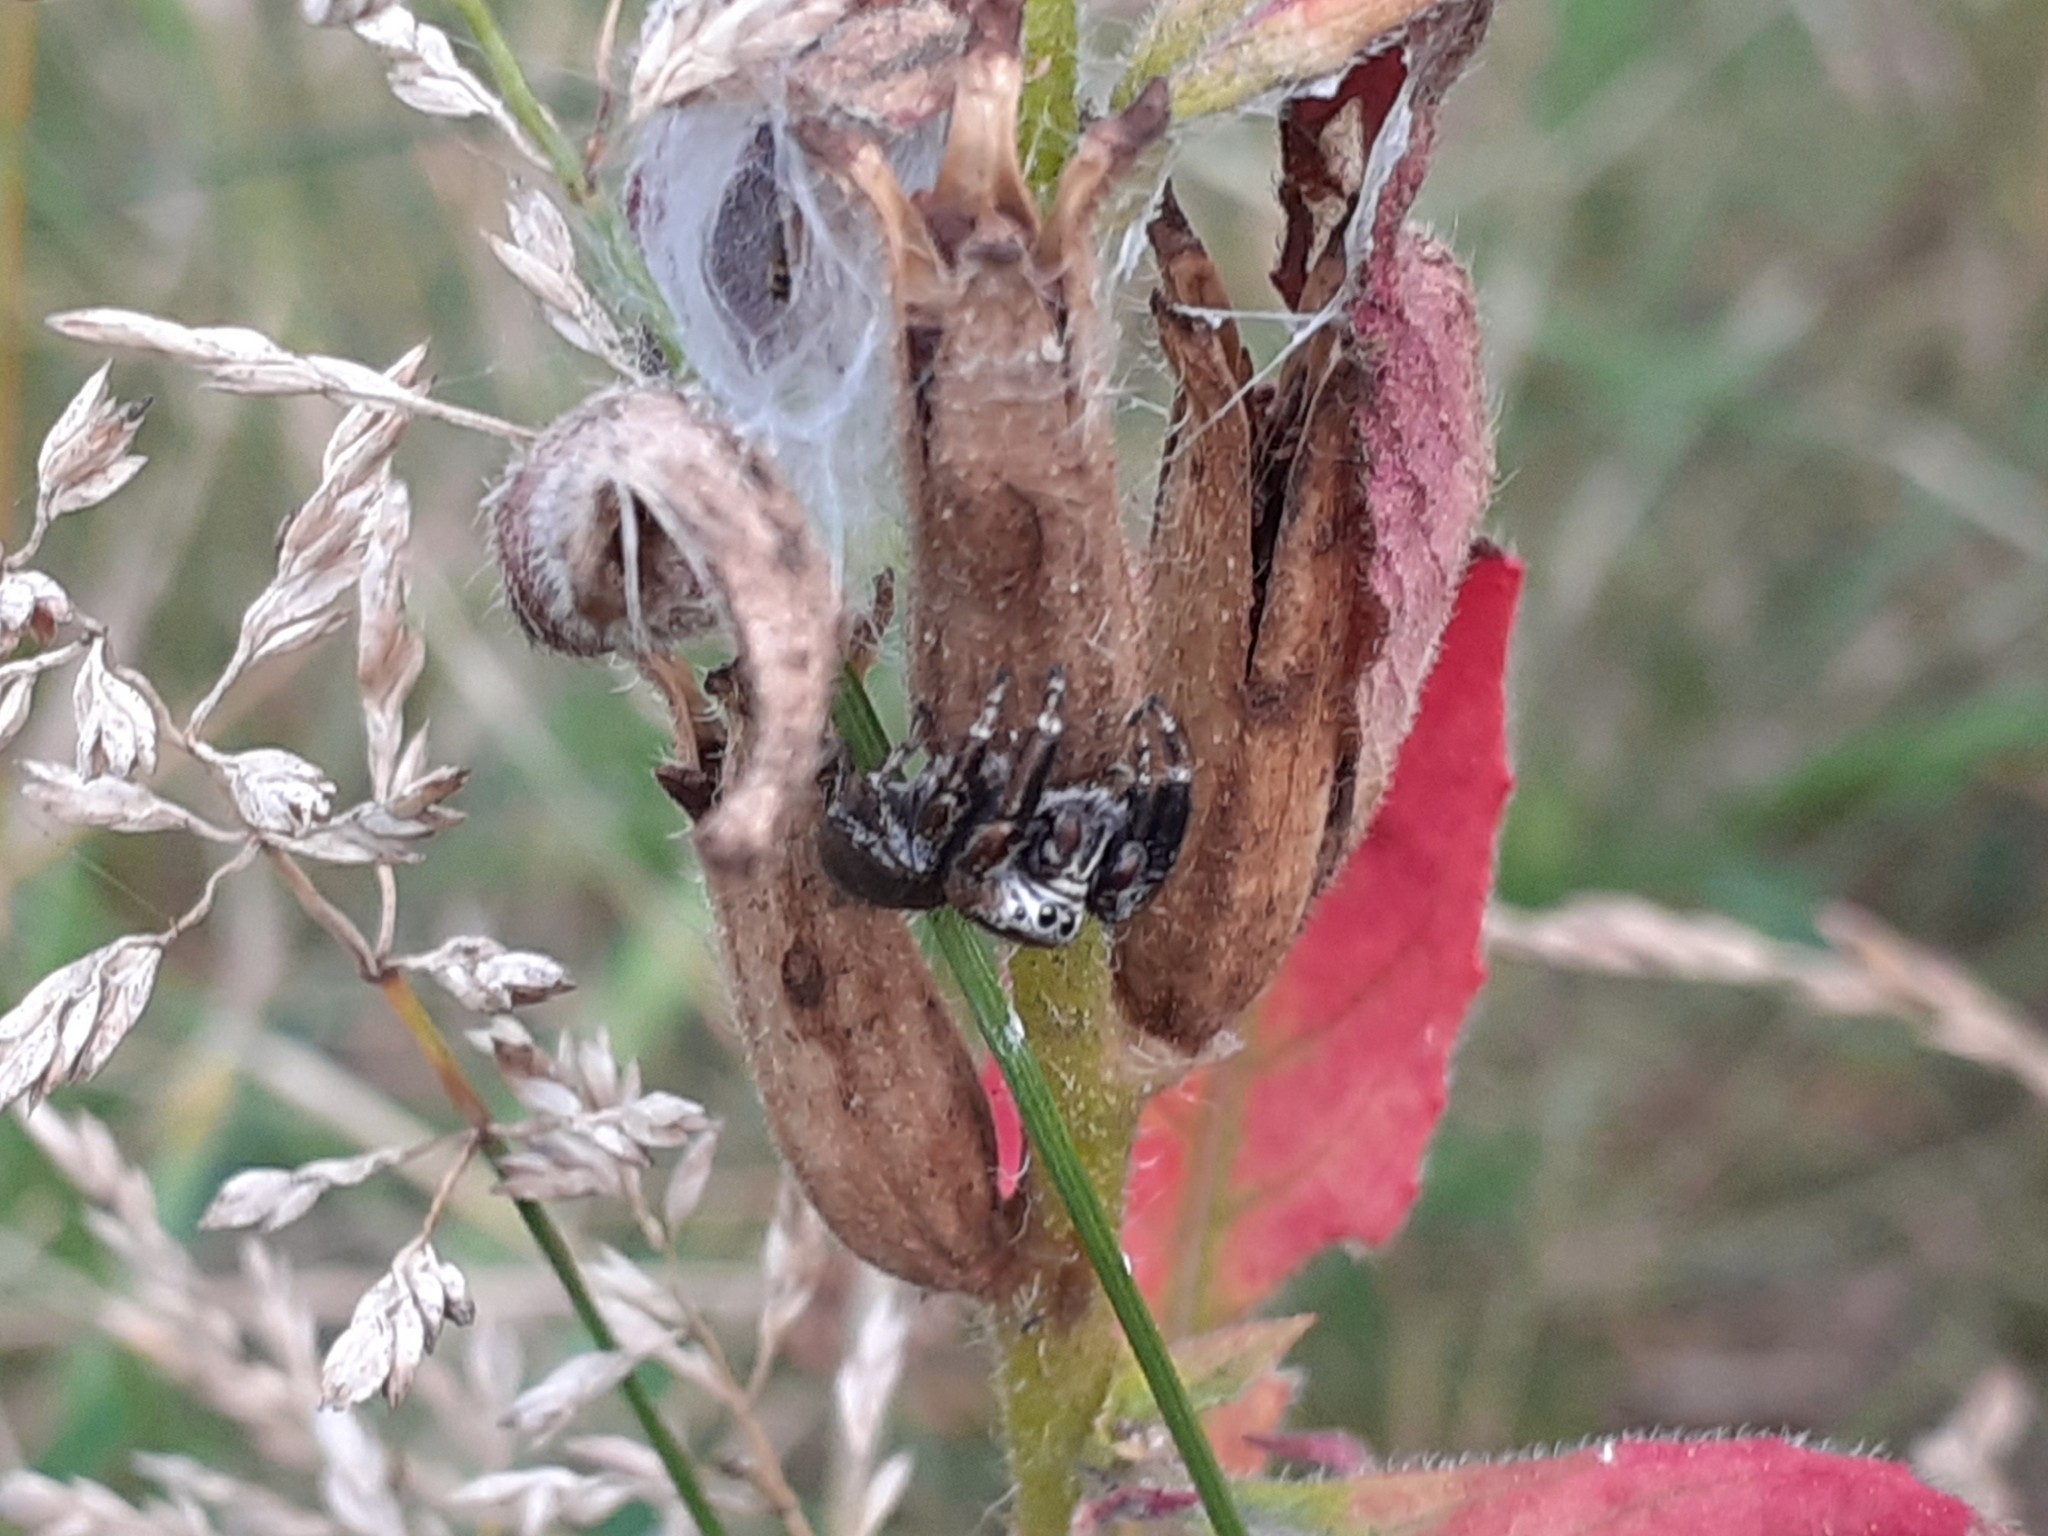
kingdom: Animalia
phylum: Arthropoda
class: Arachnida
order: Araneae
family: Salticidae
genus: Evarcha
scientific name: Evarcha arcuata
